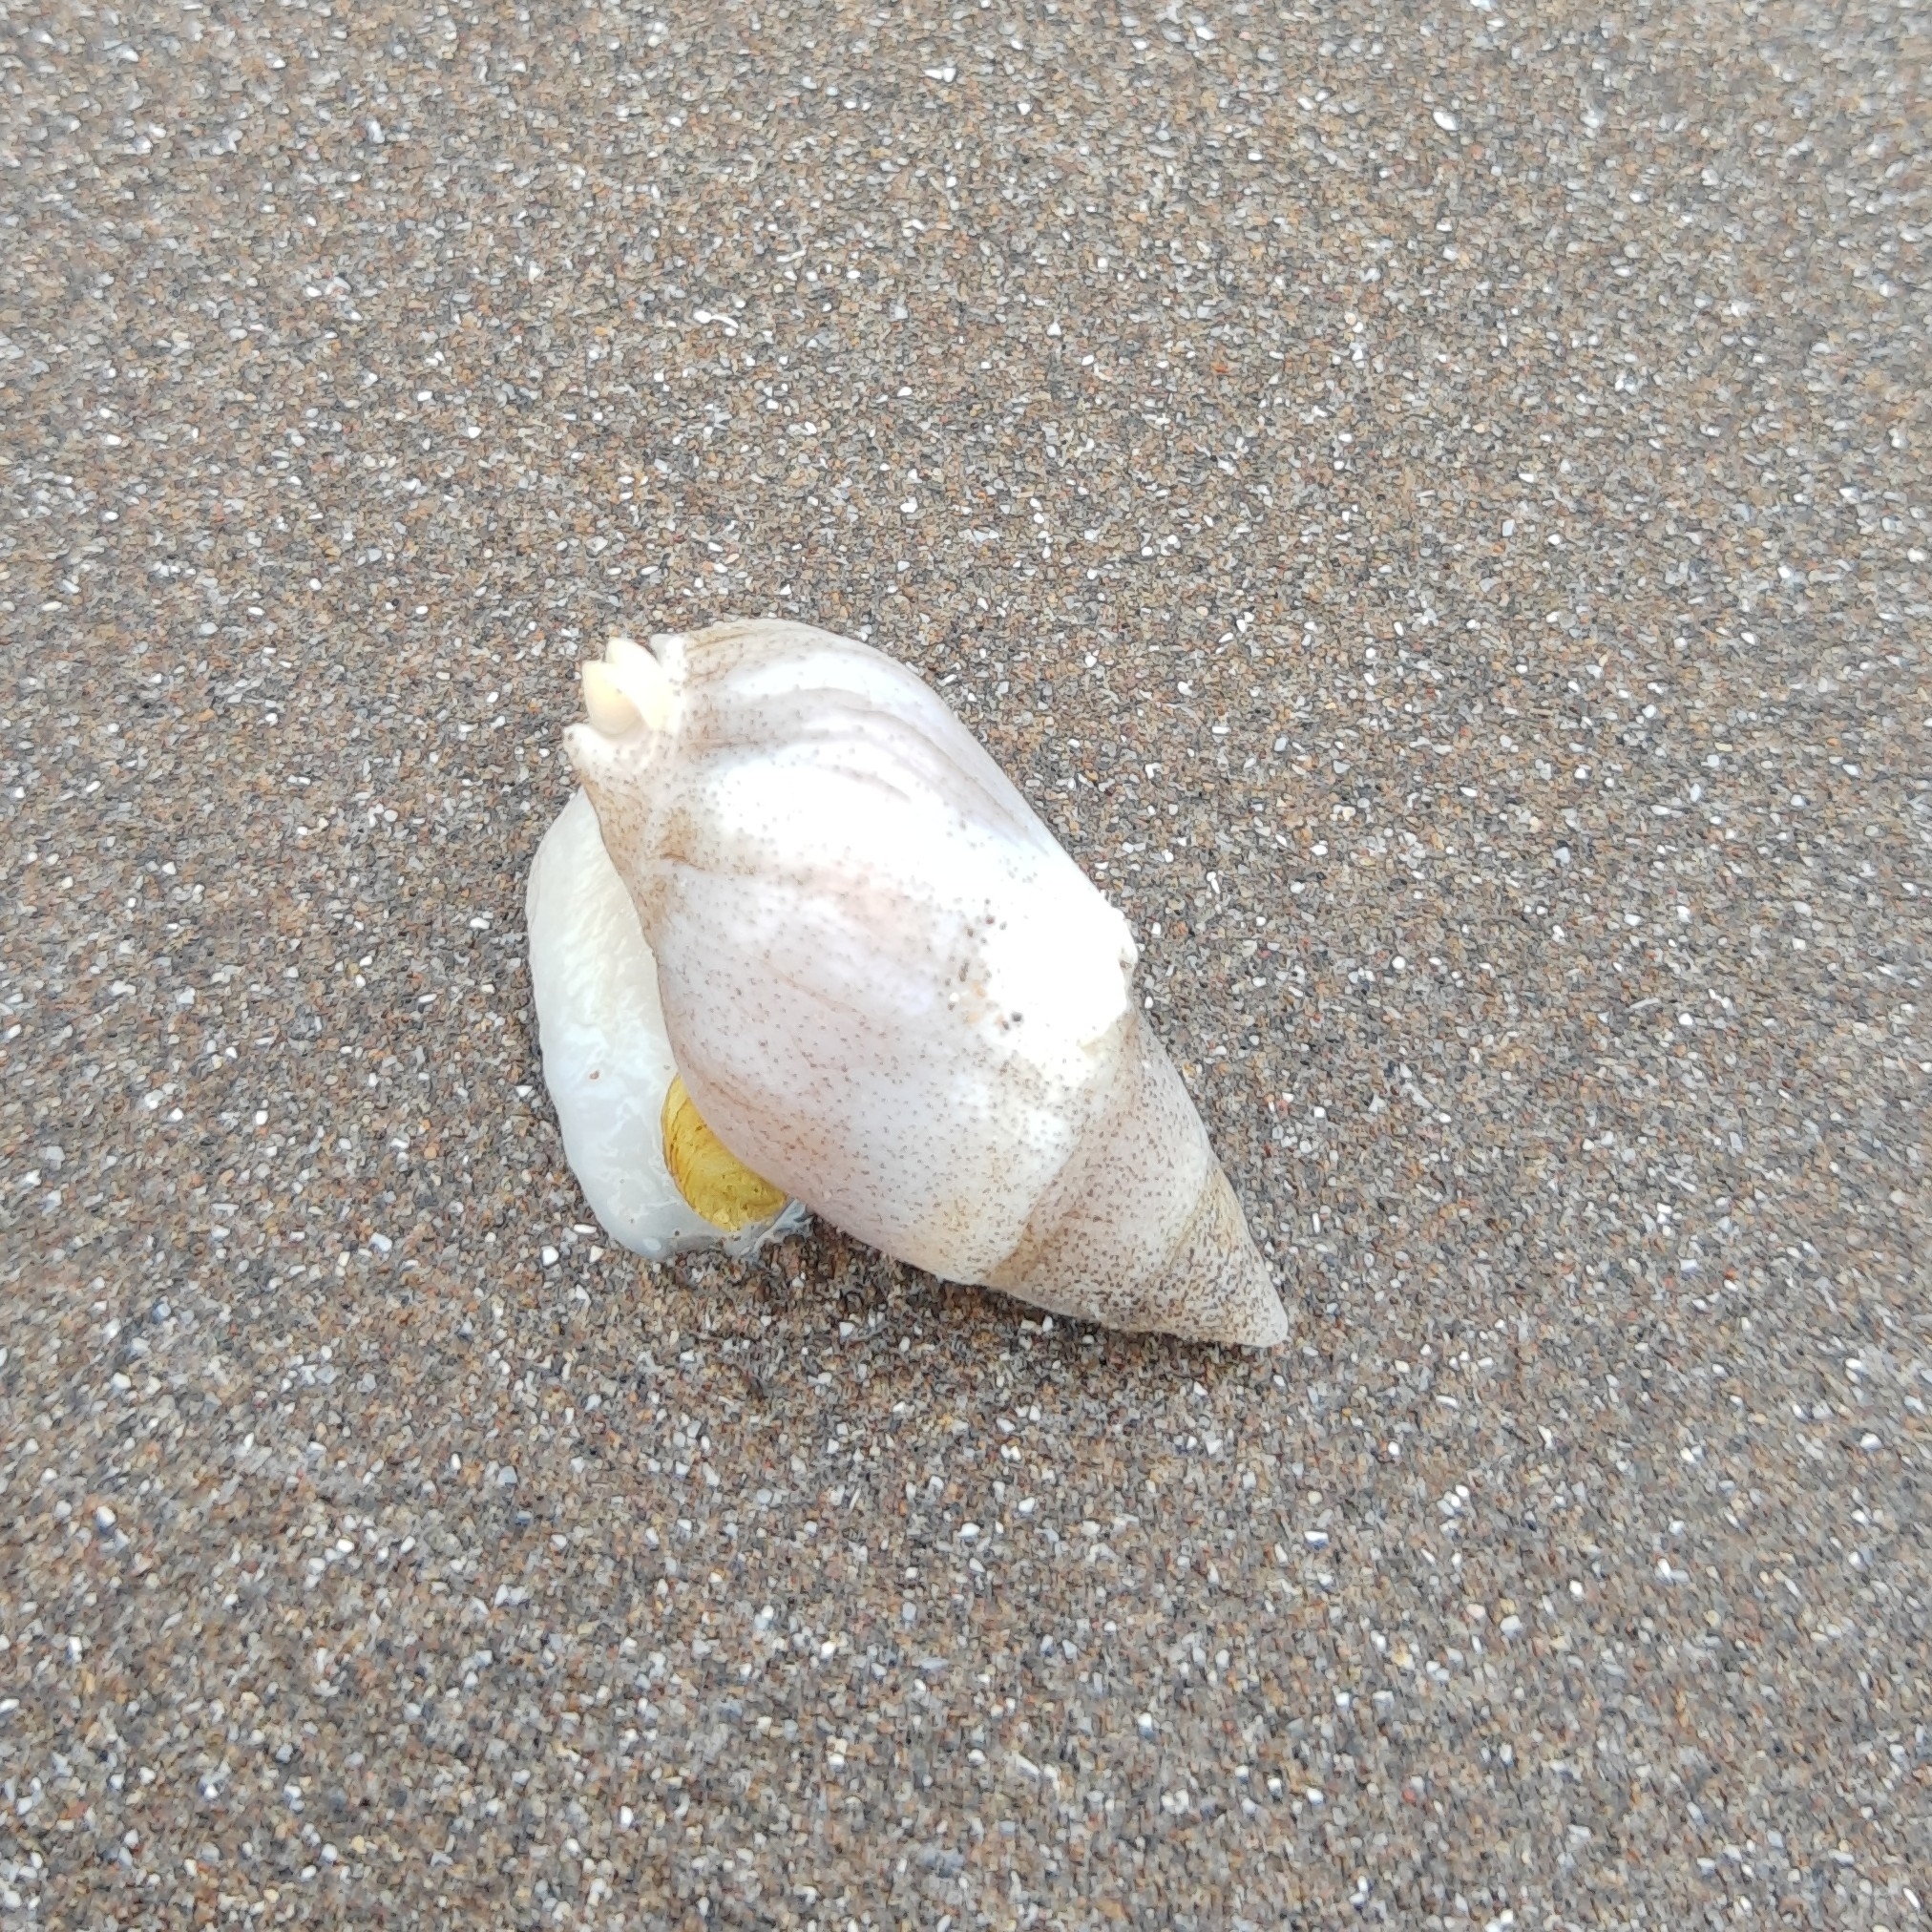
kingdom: Animalia
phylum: Mollusca
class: Gastropoda
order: Neogastropoda
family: Buccinanopsidae
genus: Buccinastrum
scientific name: Buccinastrum duartei
